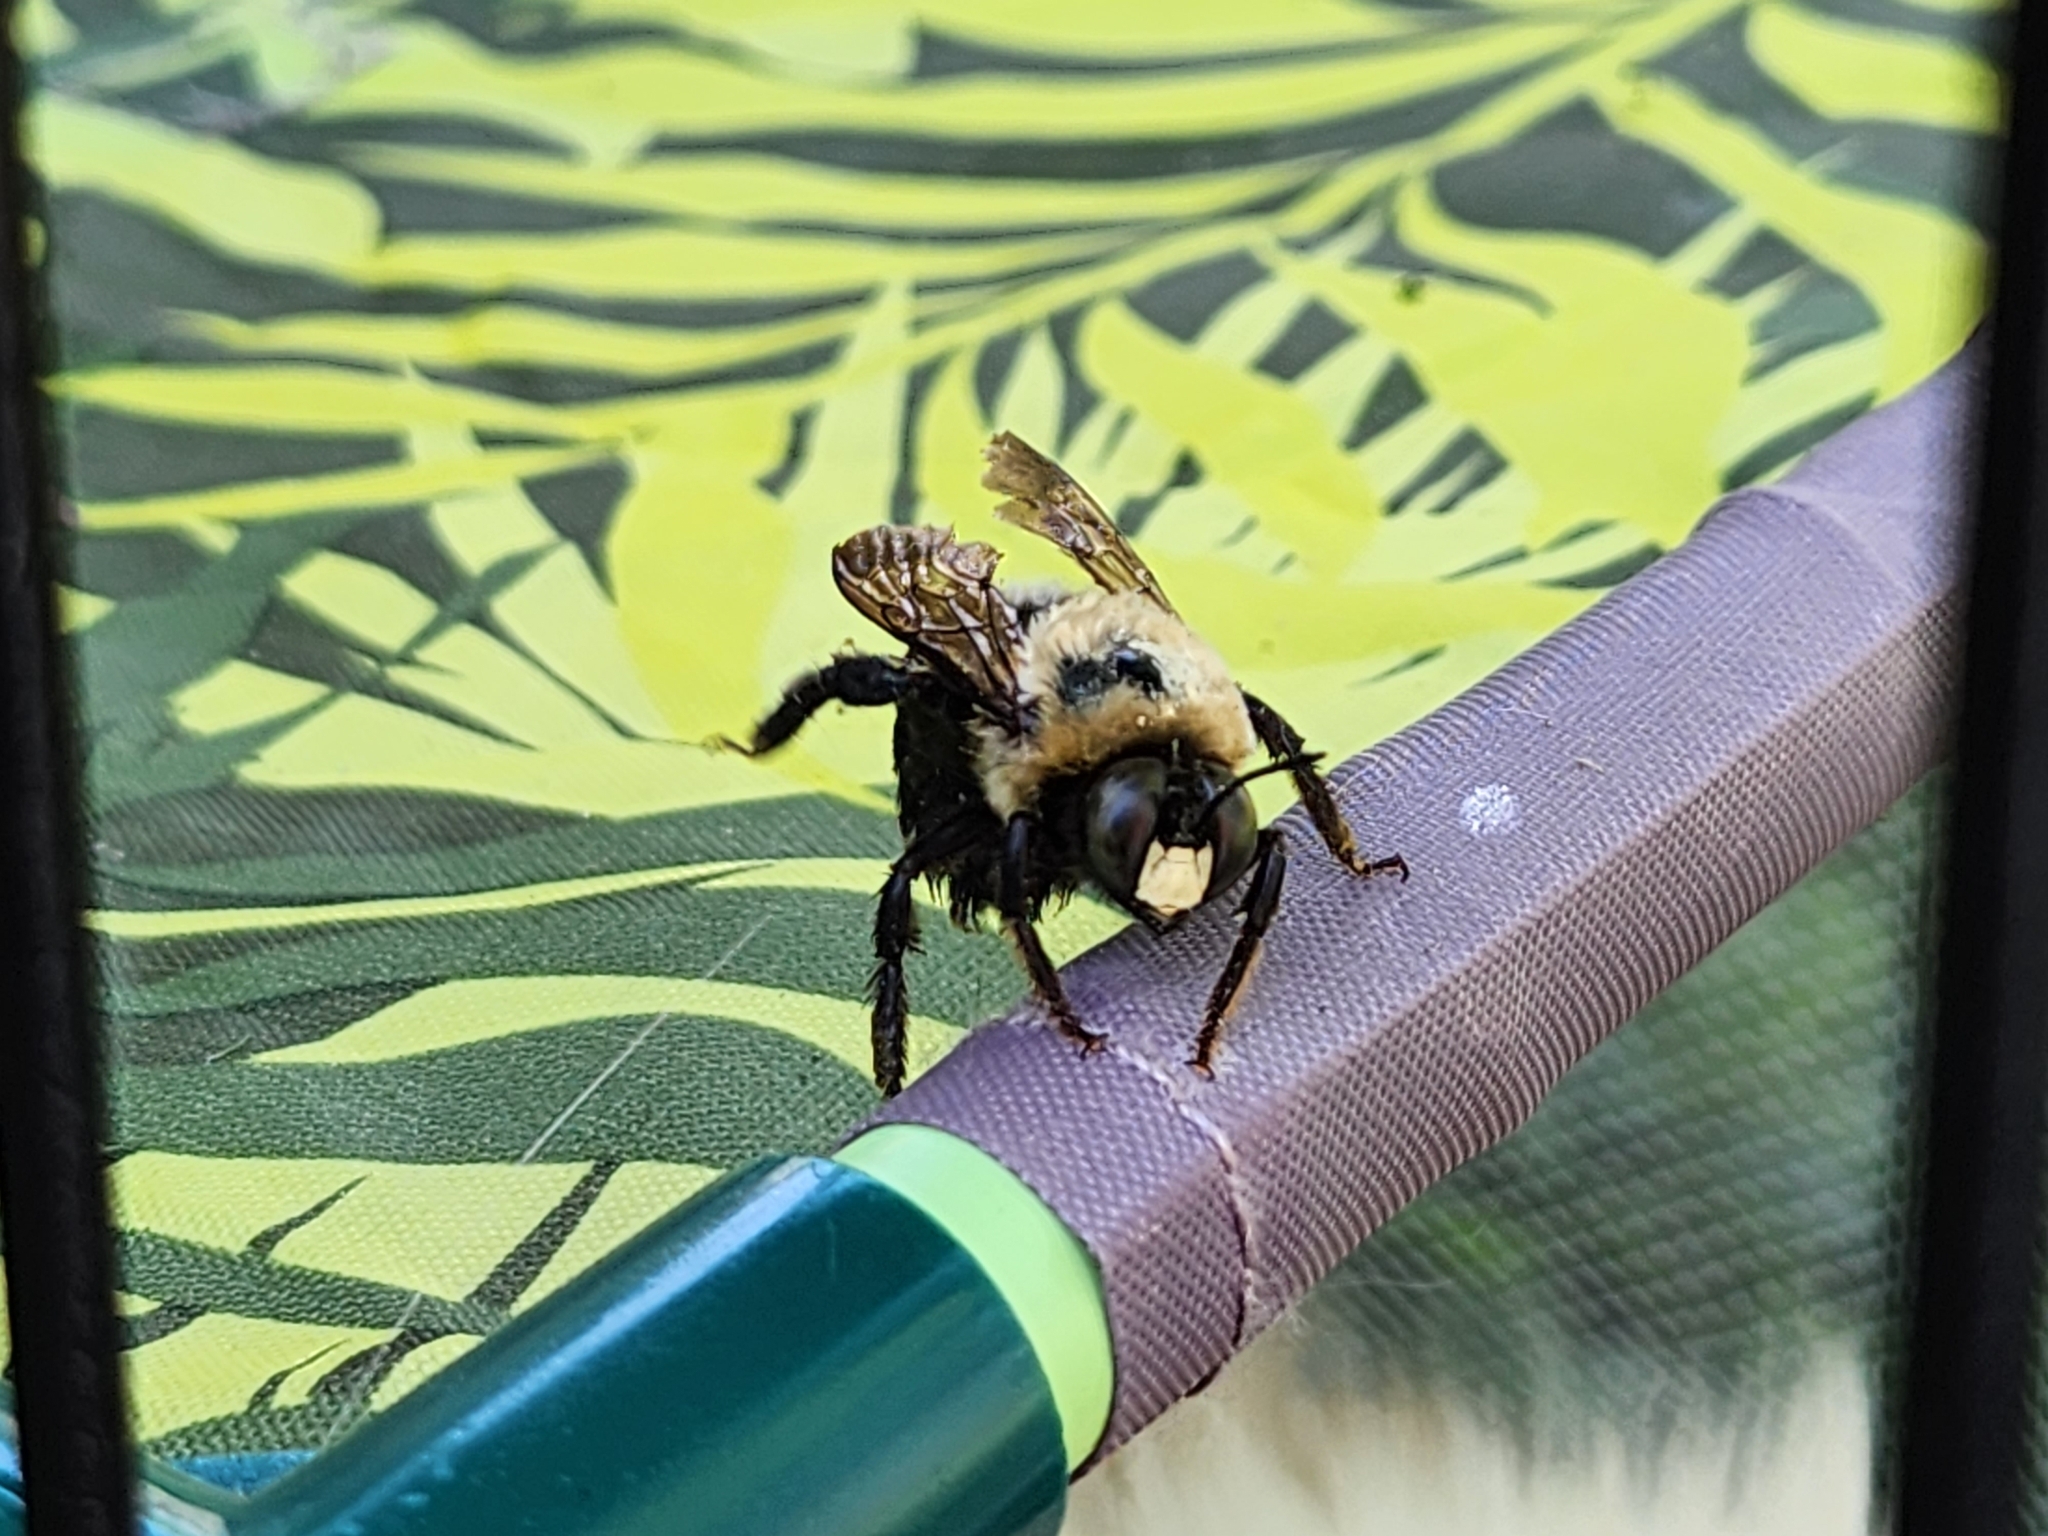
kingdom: Animalia
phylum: Arthropoda
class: Insecta
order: Hymenoptera
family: Apidae
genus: Xylocopa
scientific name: Xylocopa virginica
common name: Carpenter bee
